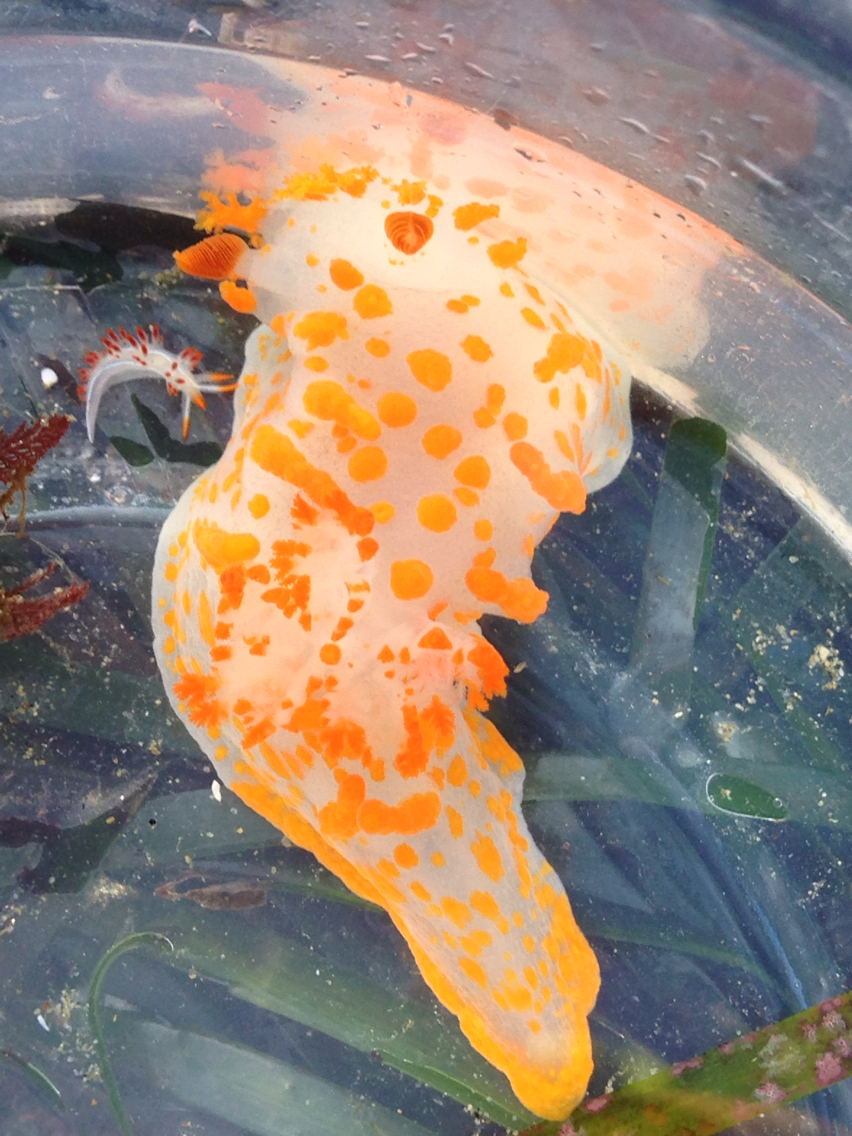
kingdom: Animalia
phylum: Mollusca
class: Gastropoda
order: Nudibranchia
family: Polyceridae
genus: Triopha
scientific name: Triopha catalinae
